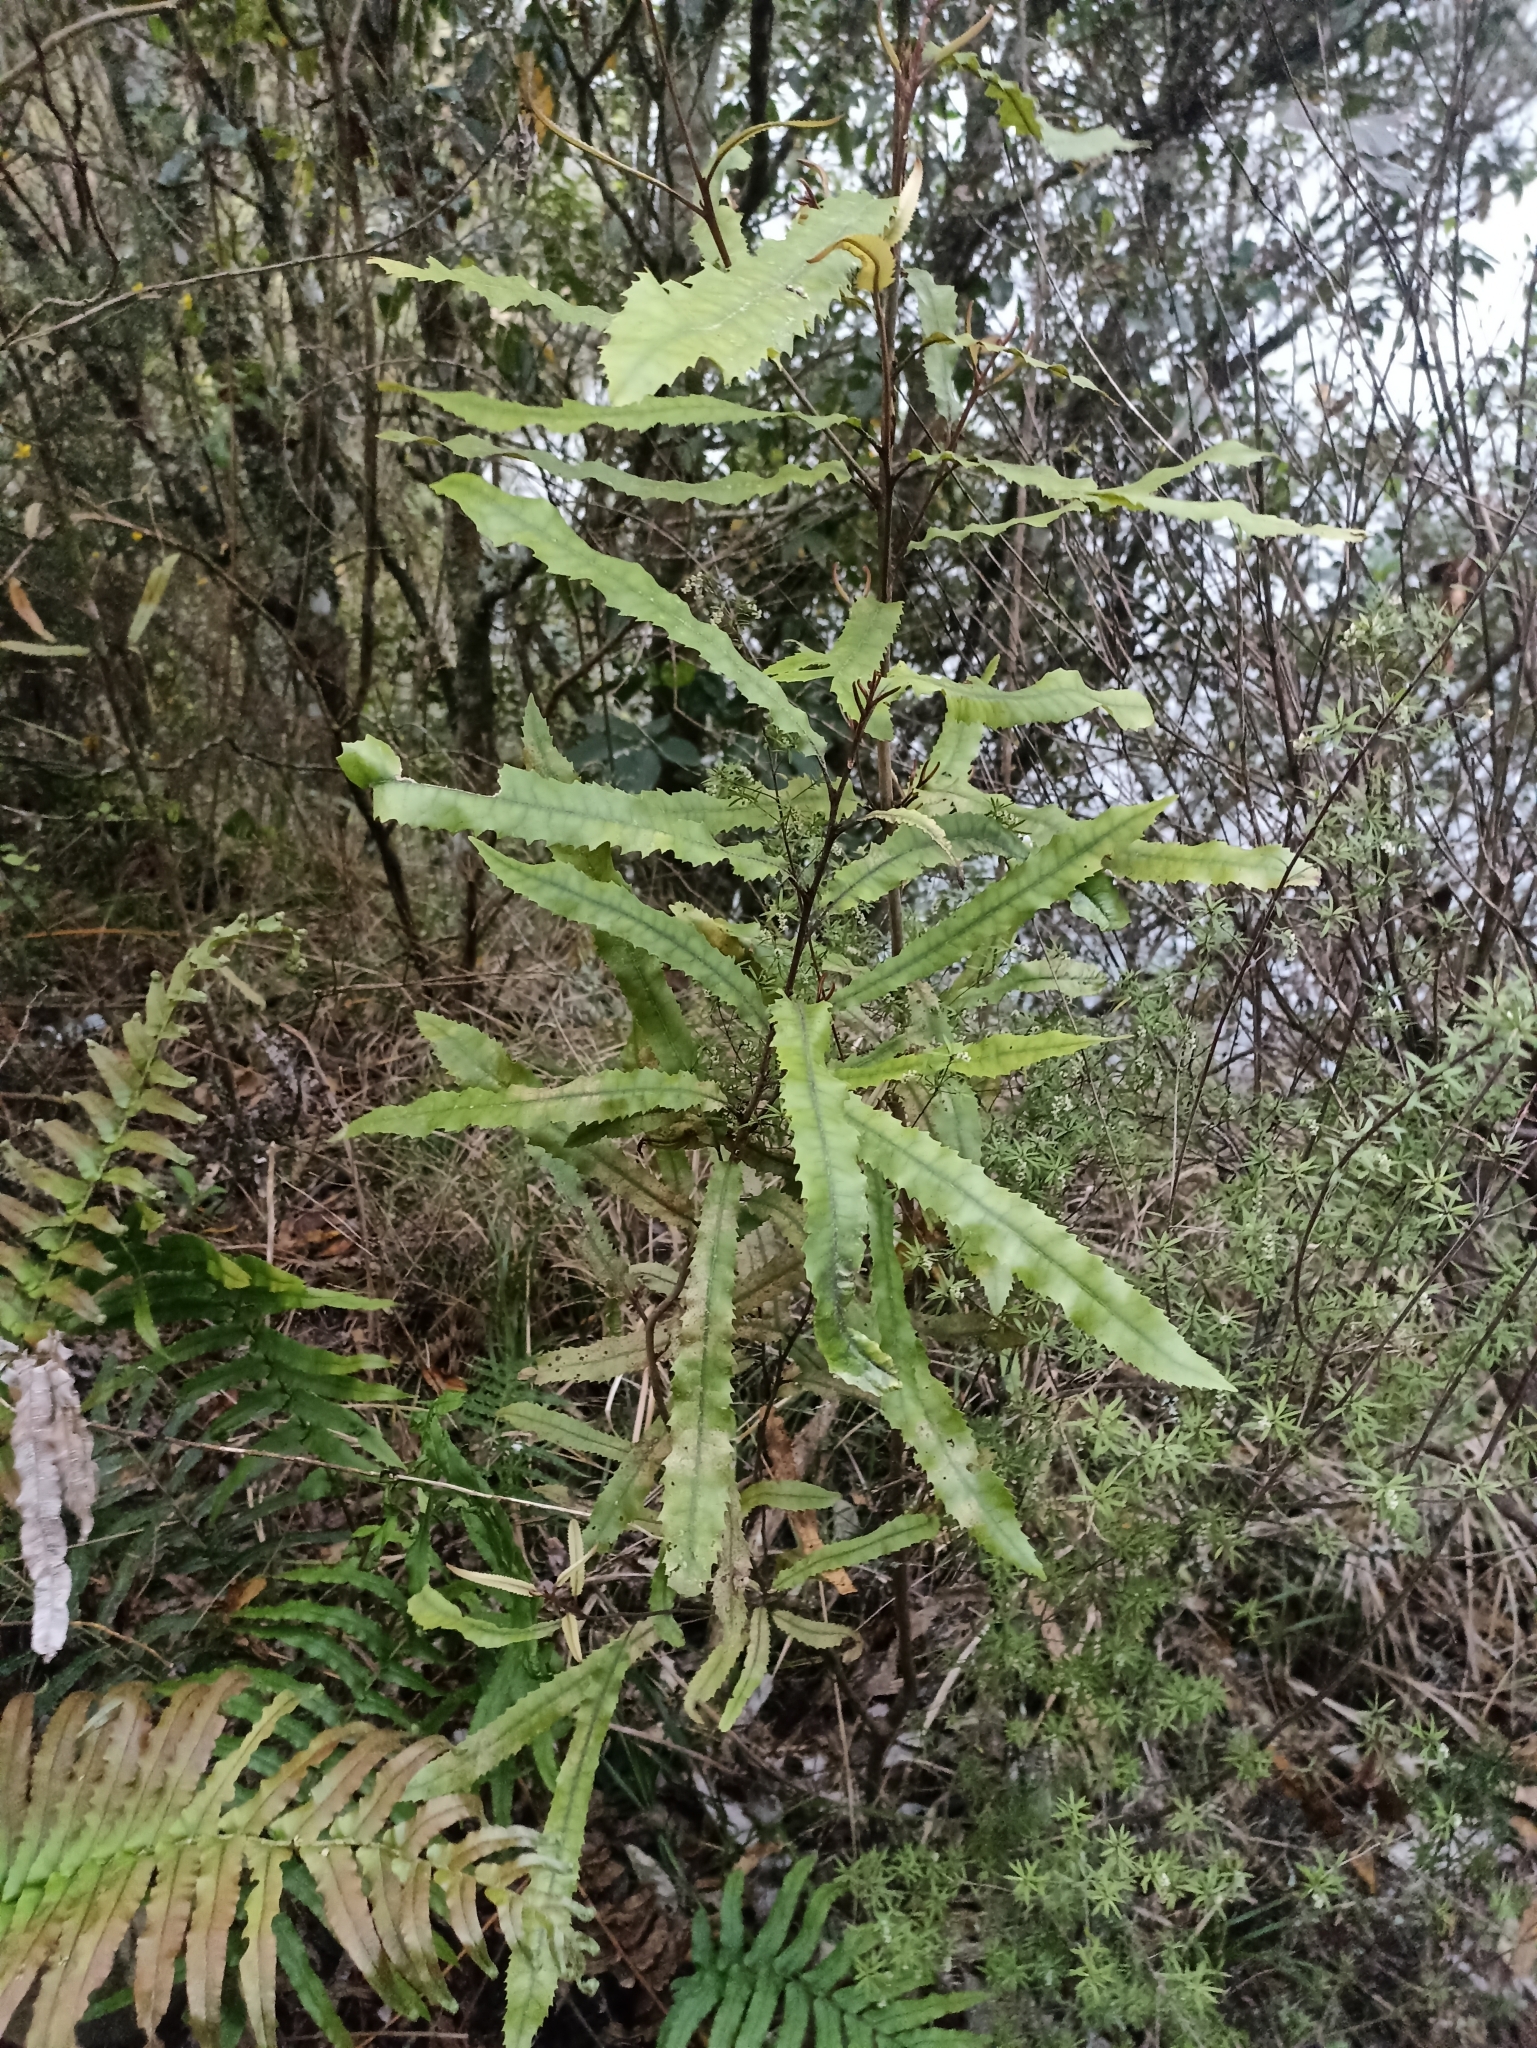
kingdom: Plantae
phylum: Tracheophyta
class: Magnoliopsida
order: Proteales
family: Proteaceae
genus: Knightia
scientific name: Knightia excelsa
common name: New zealand-honeysuckle
